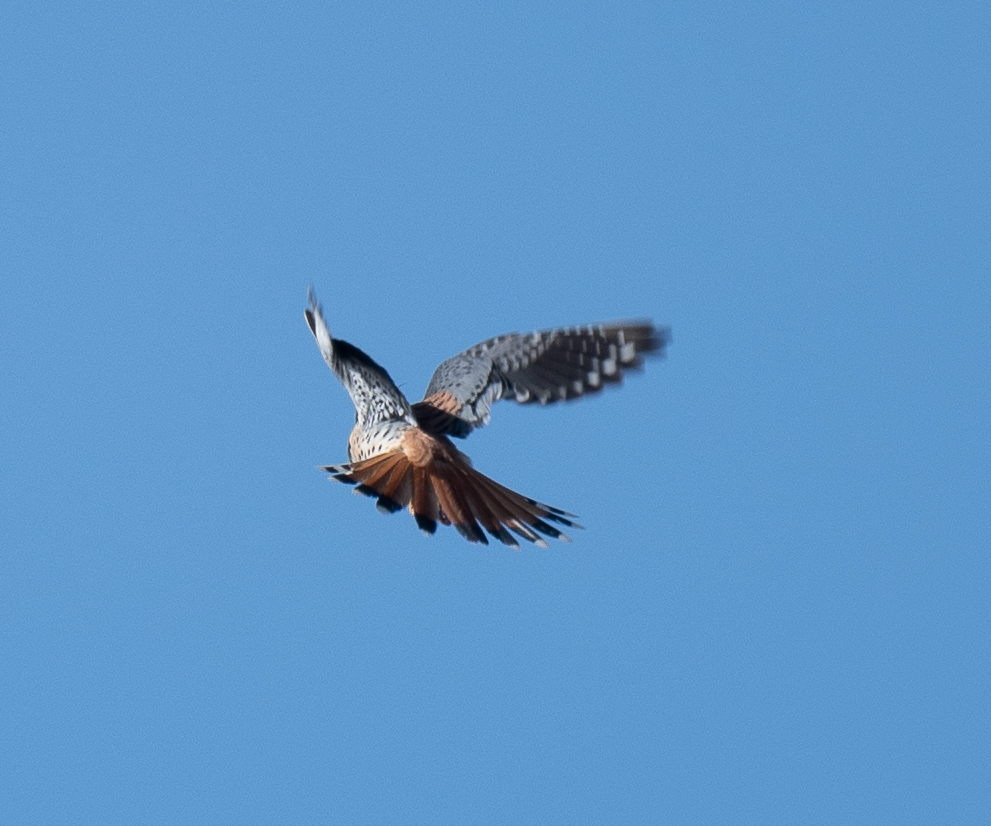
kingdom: Animalia
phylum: Chordata
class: Aves
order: Falconiformes
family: Falconidae
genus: Falco
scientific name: Falco sparverius
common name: American kestrel
